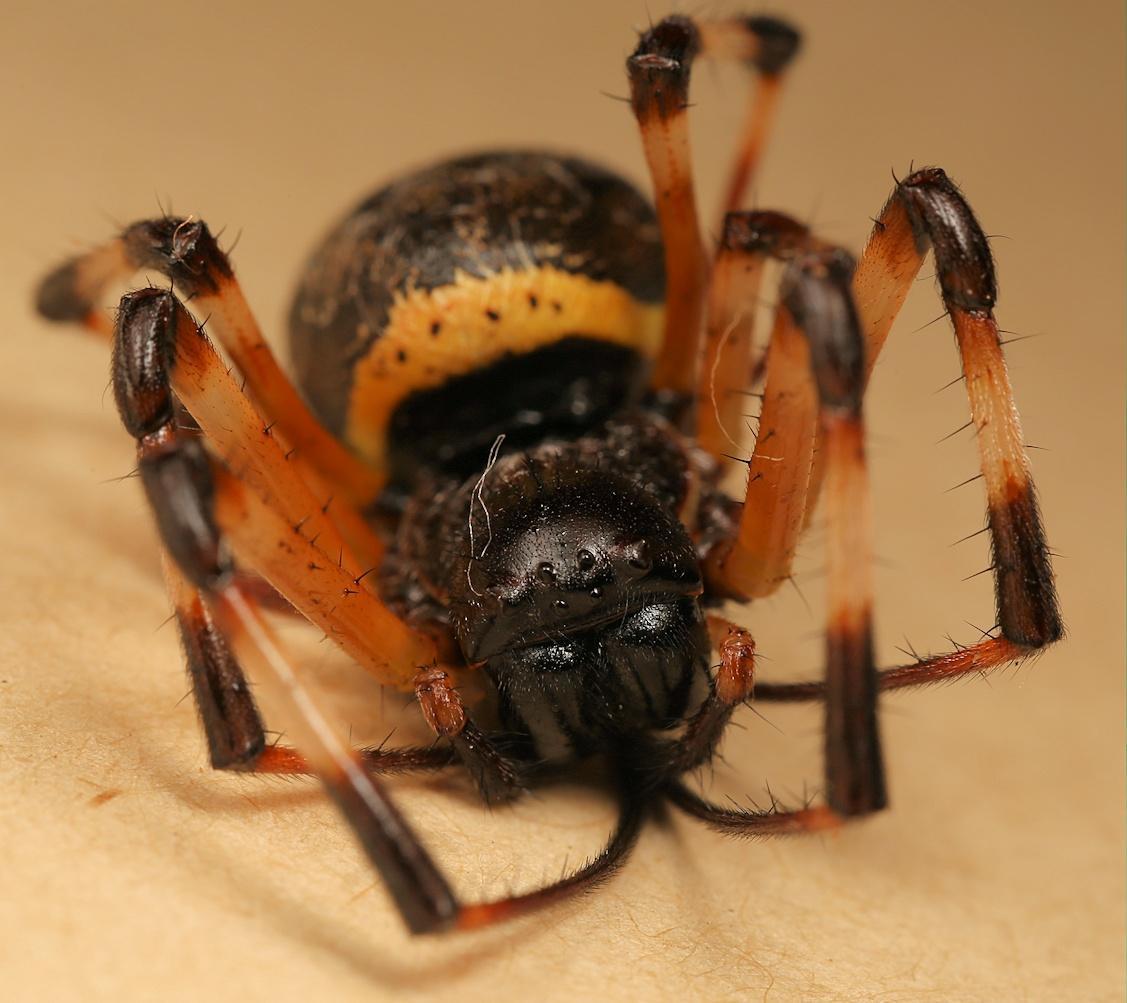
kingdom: Animalia
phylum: Arthropoda
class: Arachnida
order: Araneae
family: Araneidae
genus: Nephilingis
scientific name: Nephilingis cruentata
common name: African hermit spider
